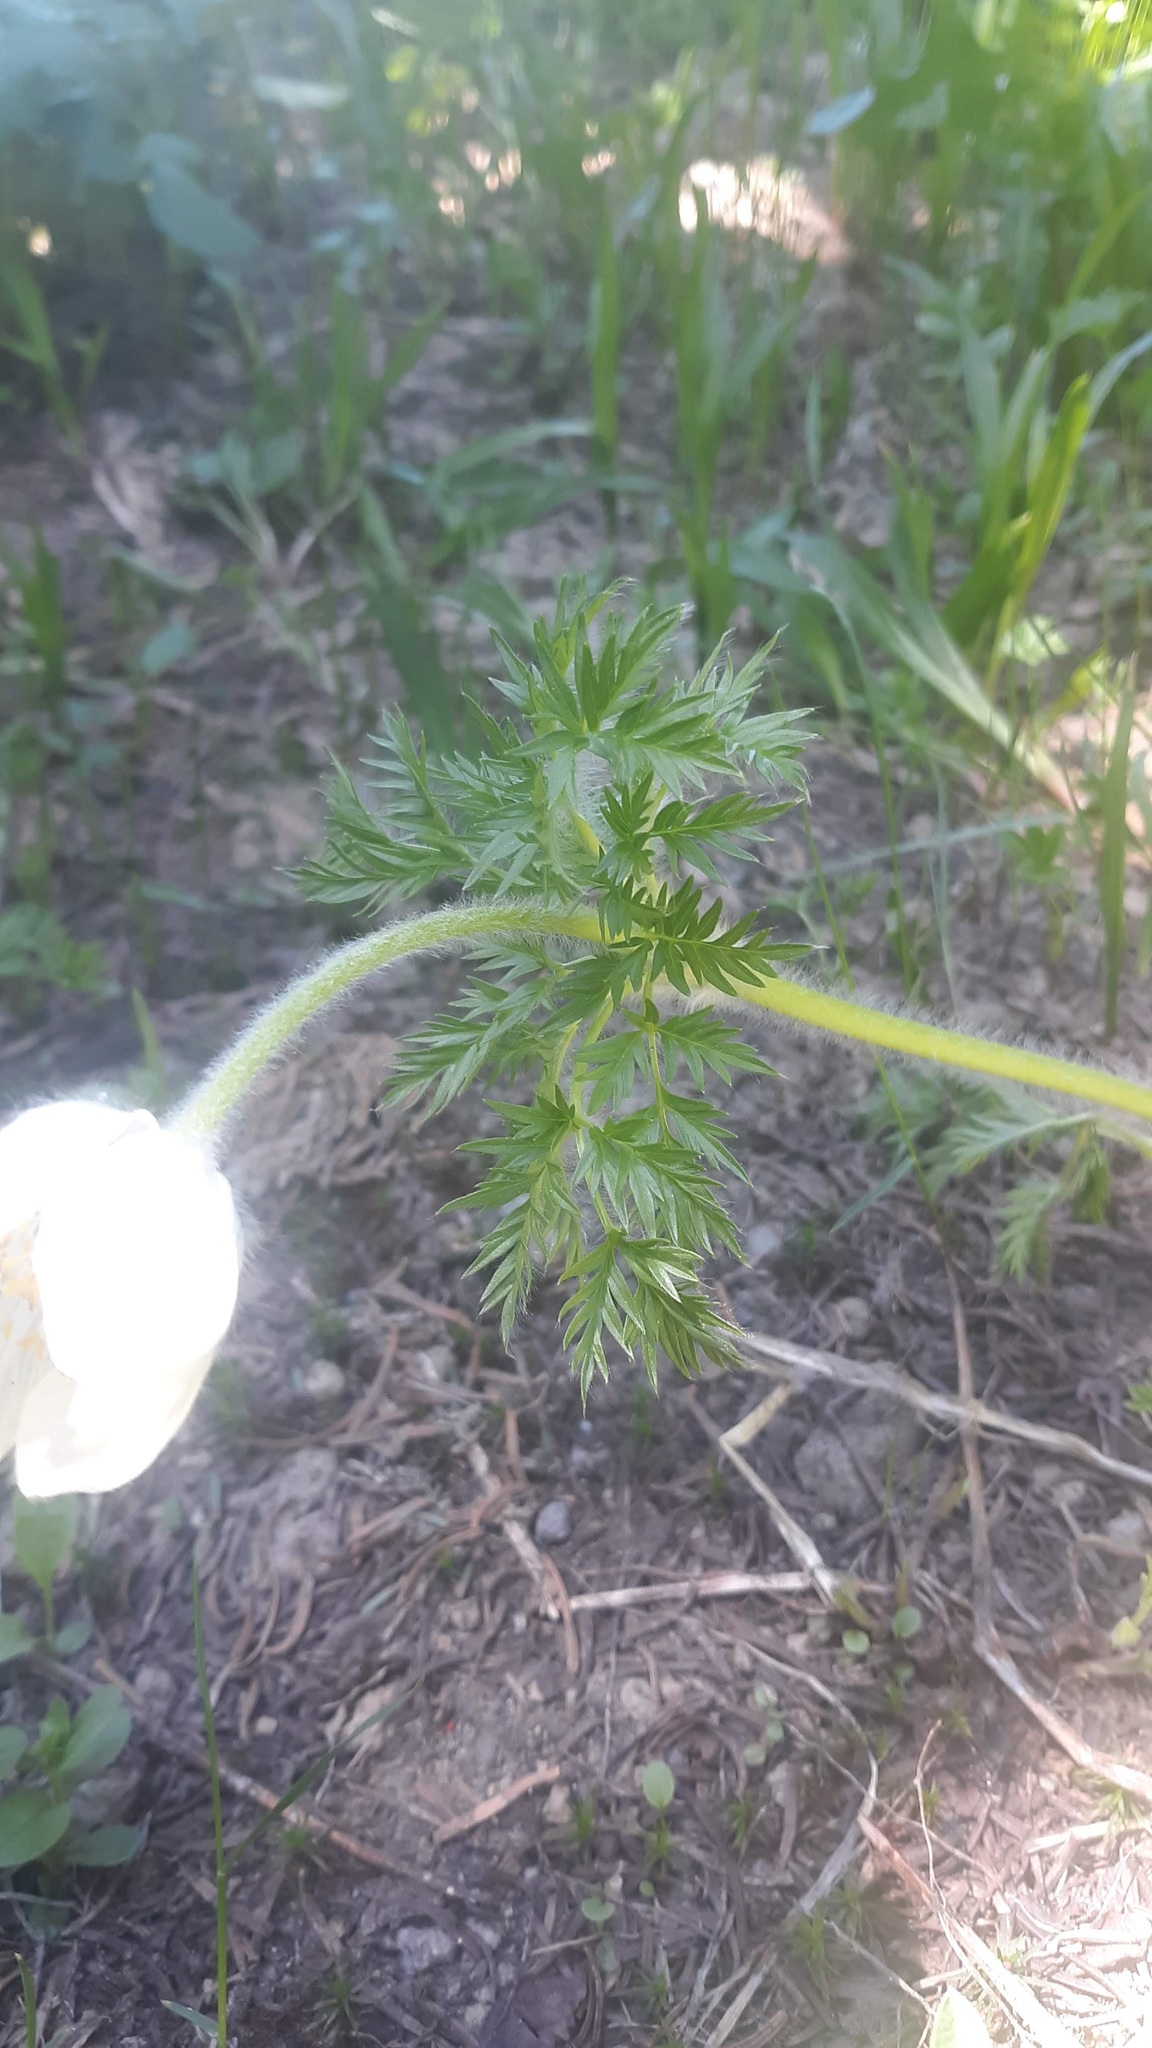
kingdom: Plantae
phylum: Tracheophyta
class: Magnoliopsida
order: Ranunculales
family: Ranunculaceae
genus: Pulsatilla
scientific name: Pulsatilla occidentalis
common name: Mountain pasqueflower
